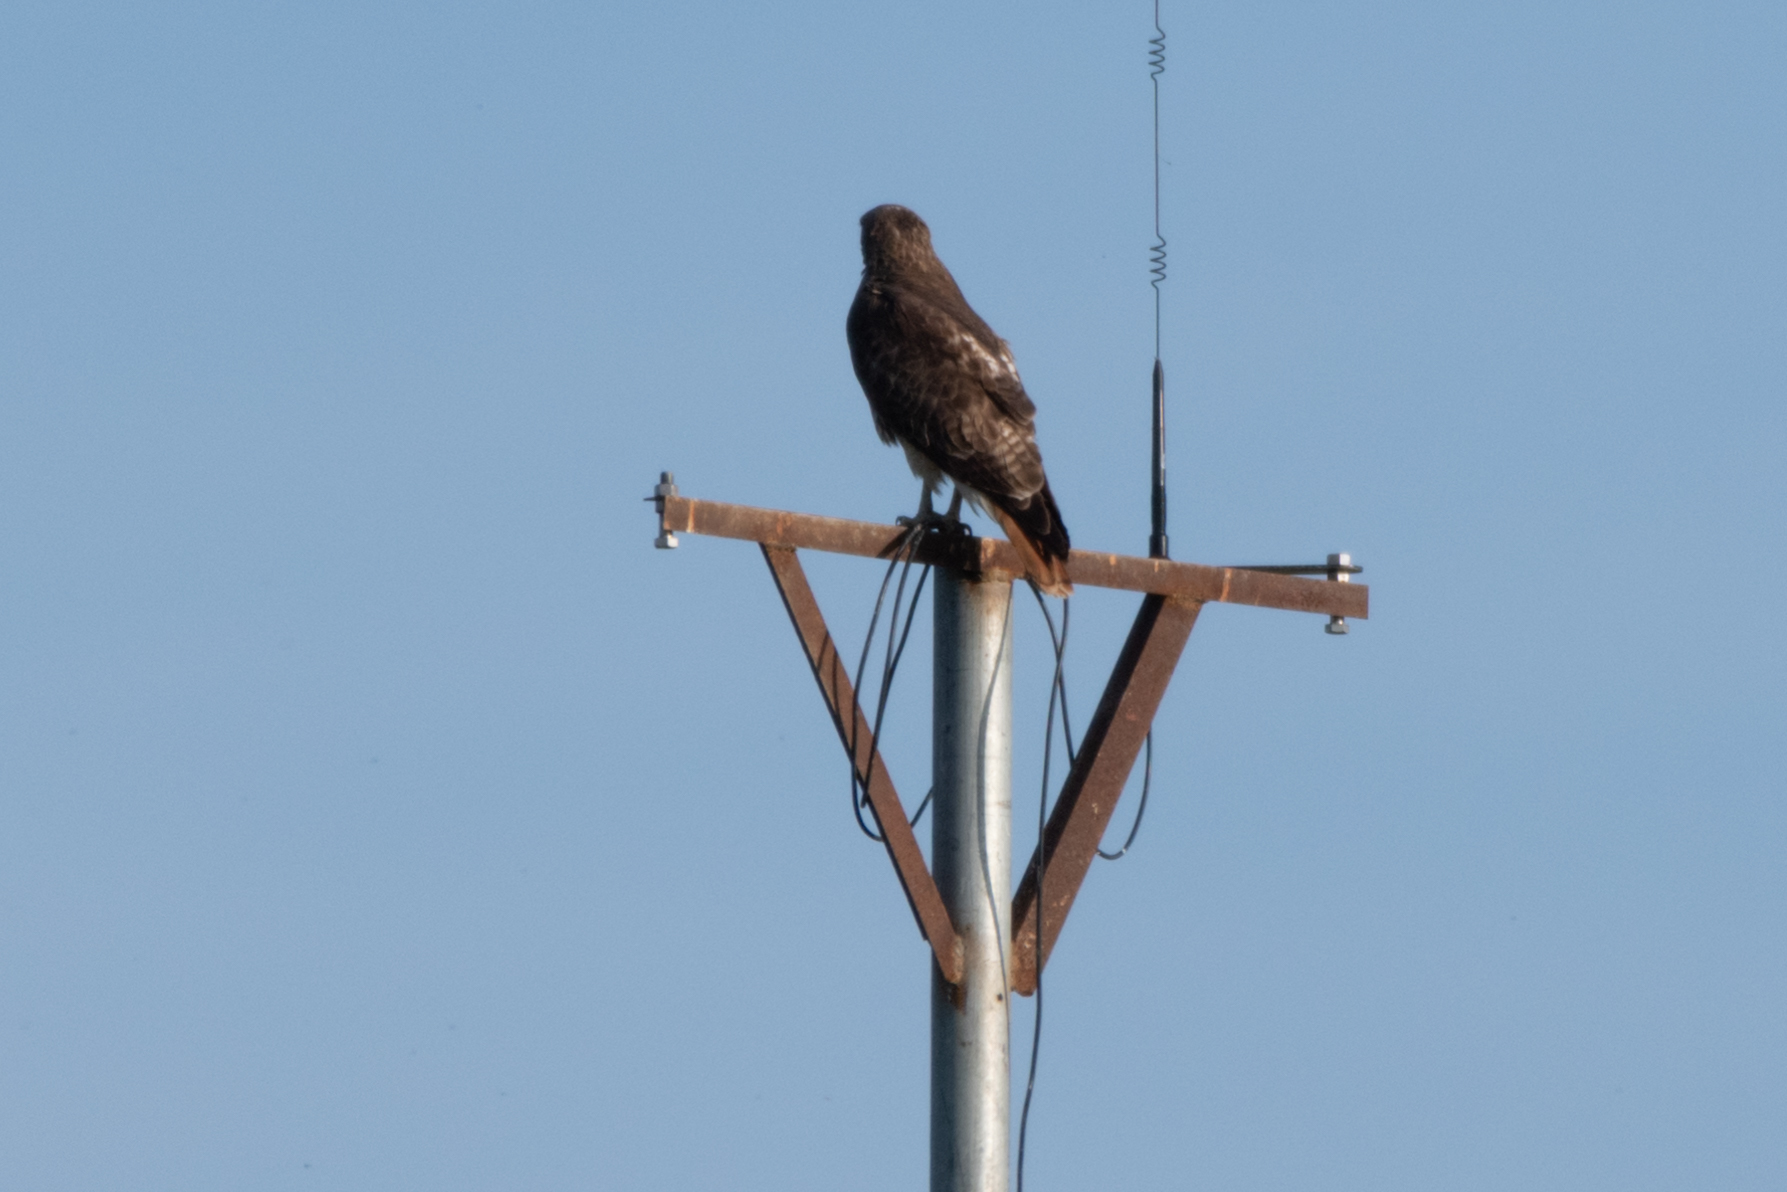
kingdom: Animalia
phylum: Chordata
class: Aves
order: Accipitriformes
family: Accipitridae
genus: Buteo
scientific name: Buteo jamaicensis
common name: Red-tailed hawk
